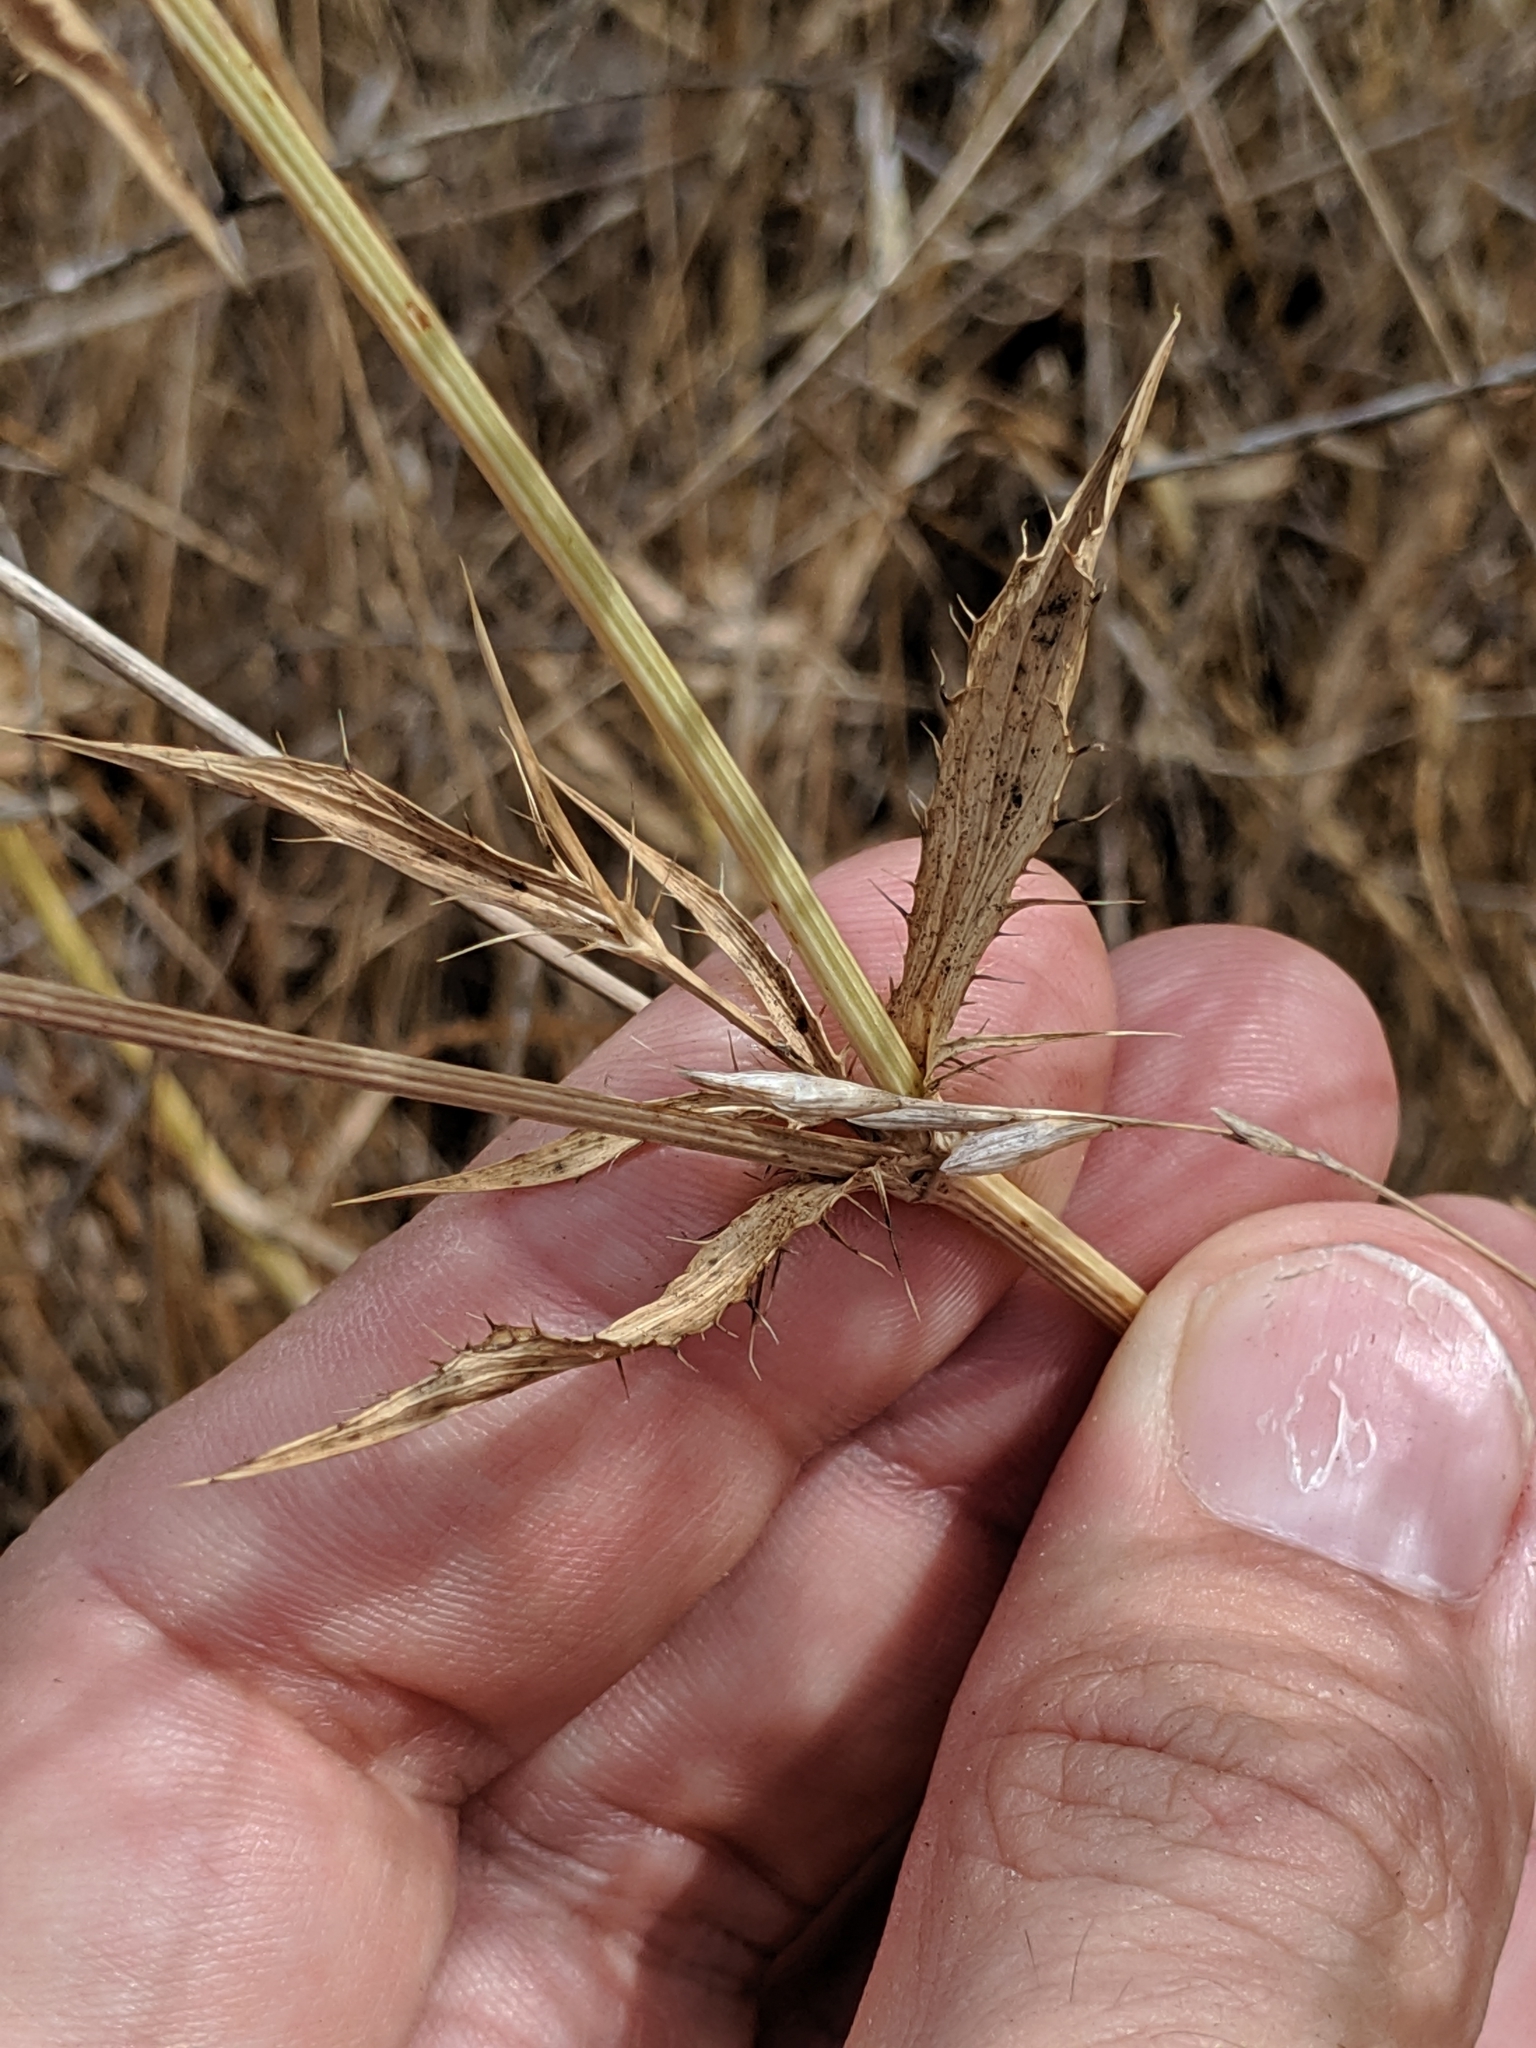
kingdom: Plantae
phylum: Tracheophyta
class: Magnoliopsida
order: Apiales
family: Apiaceae
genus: Eryngium
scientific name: Eryngium aristulatum
